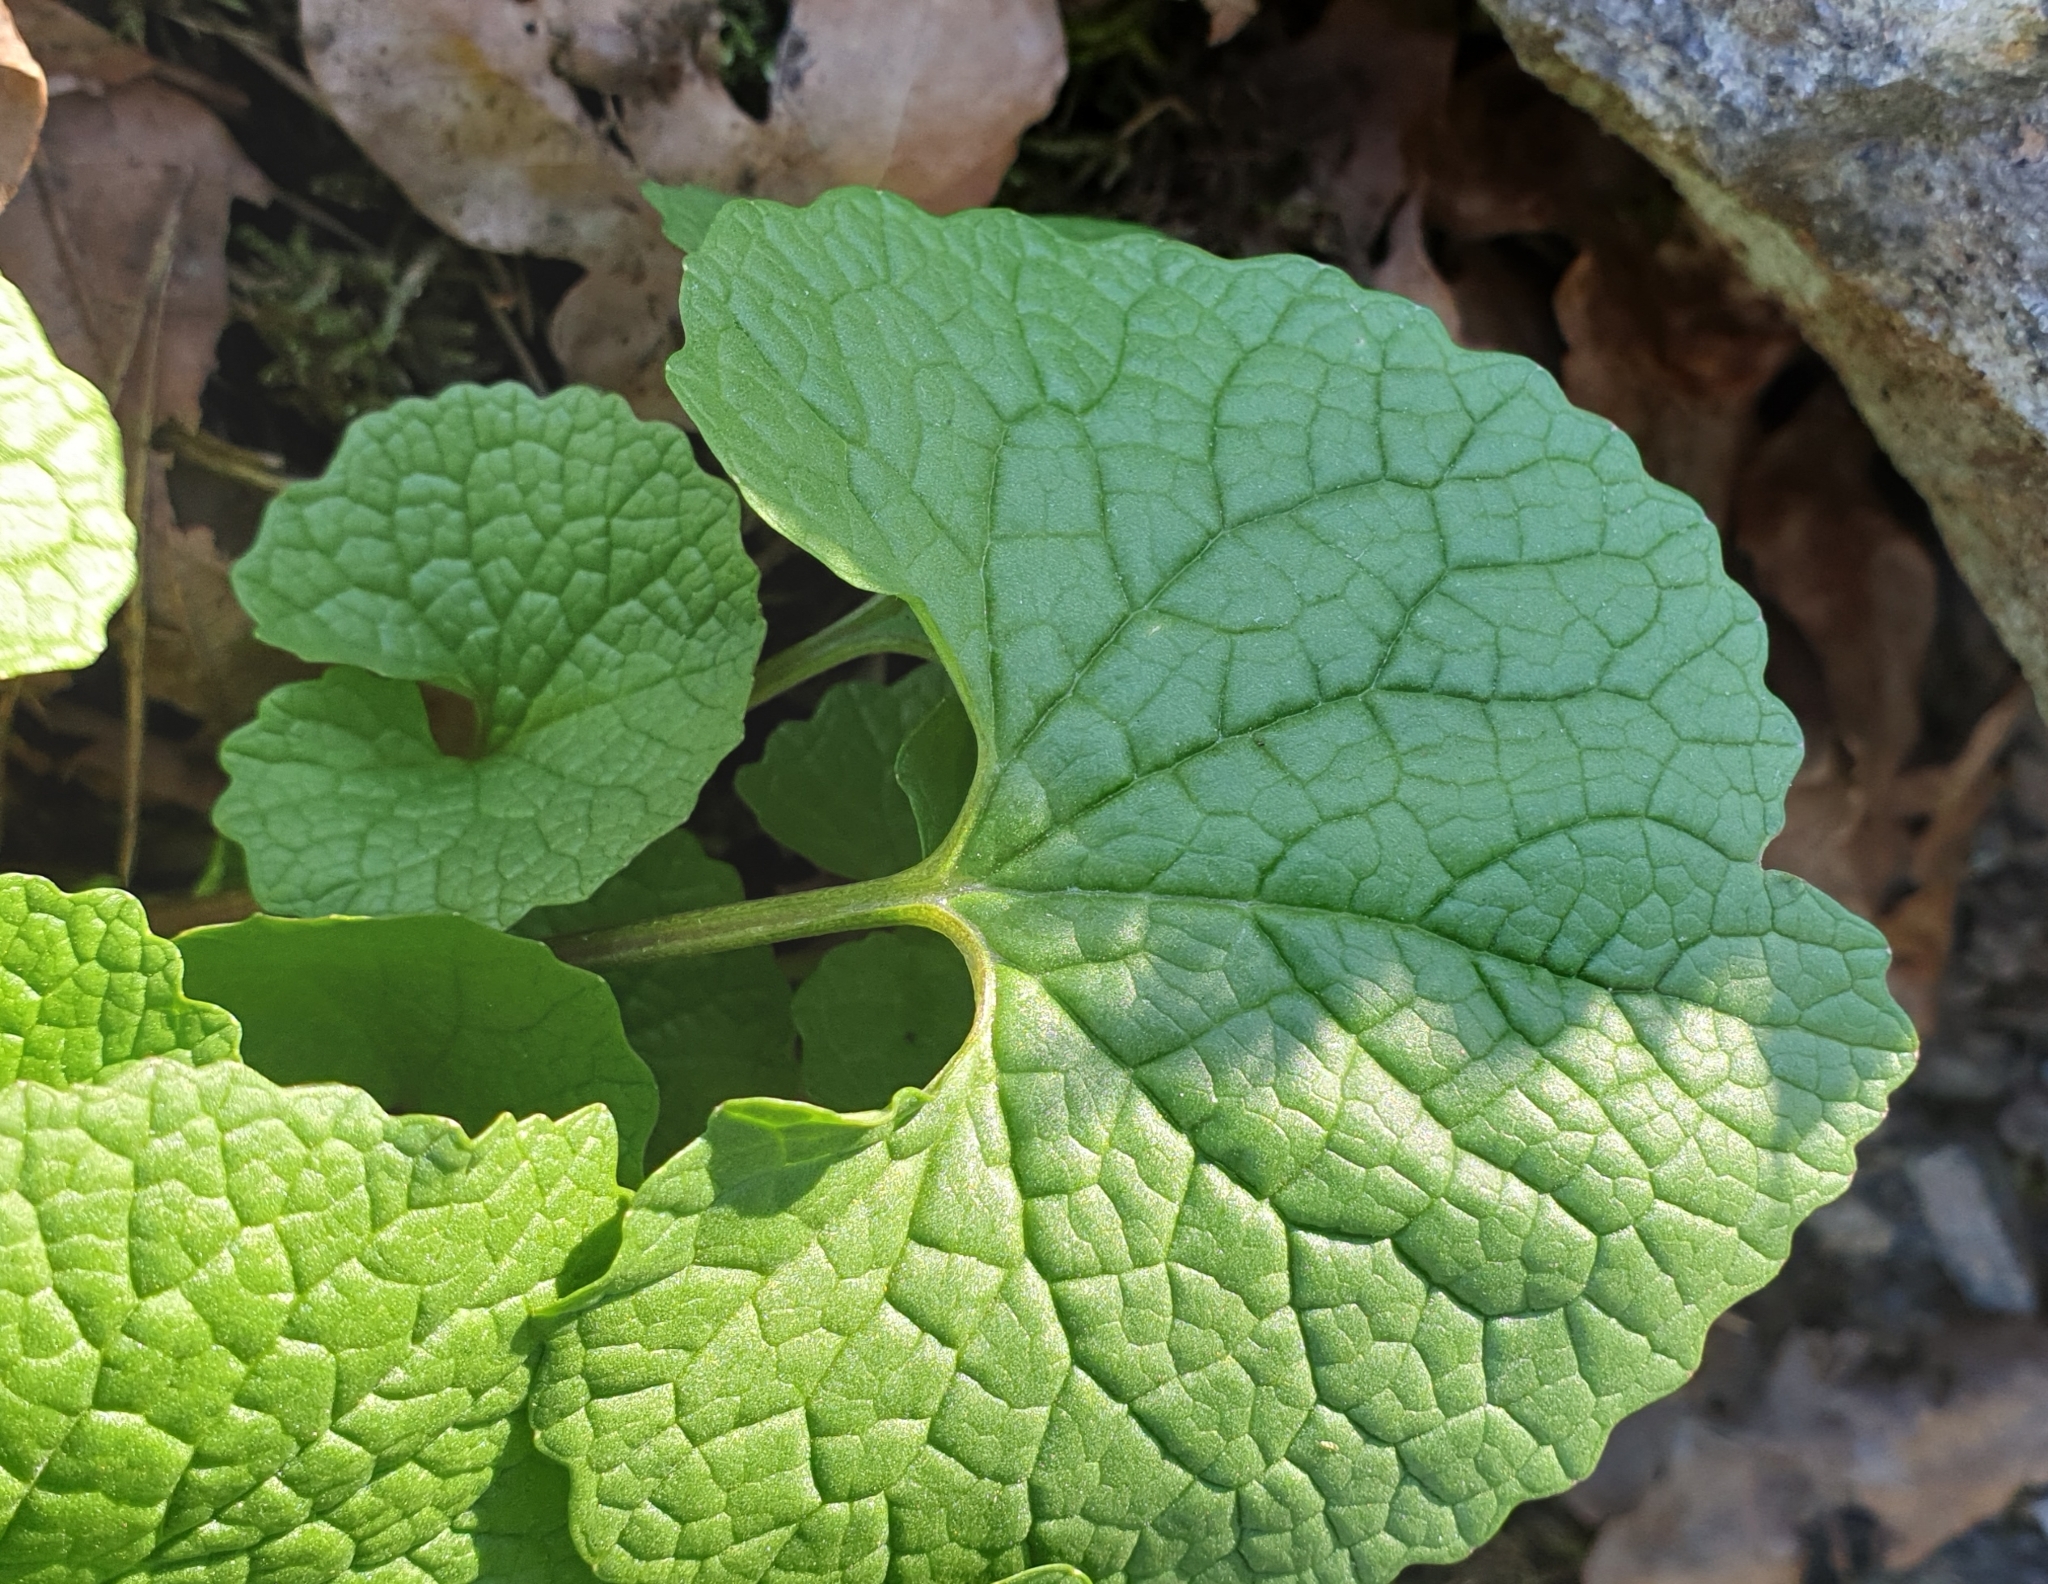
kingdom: Plantae
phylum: Tracheophyta
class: Magnoliopsida
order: Brassicales
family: Brassicaceae
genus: Alliaria
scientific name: Alliaria petiolata
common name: Garlic mustard
